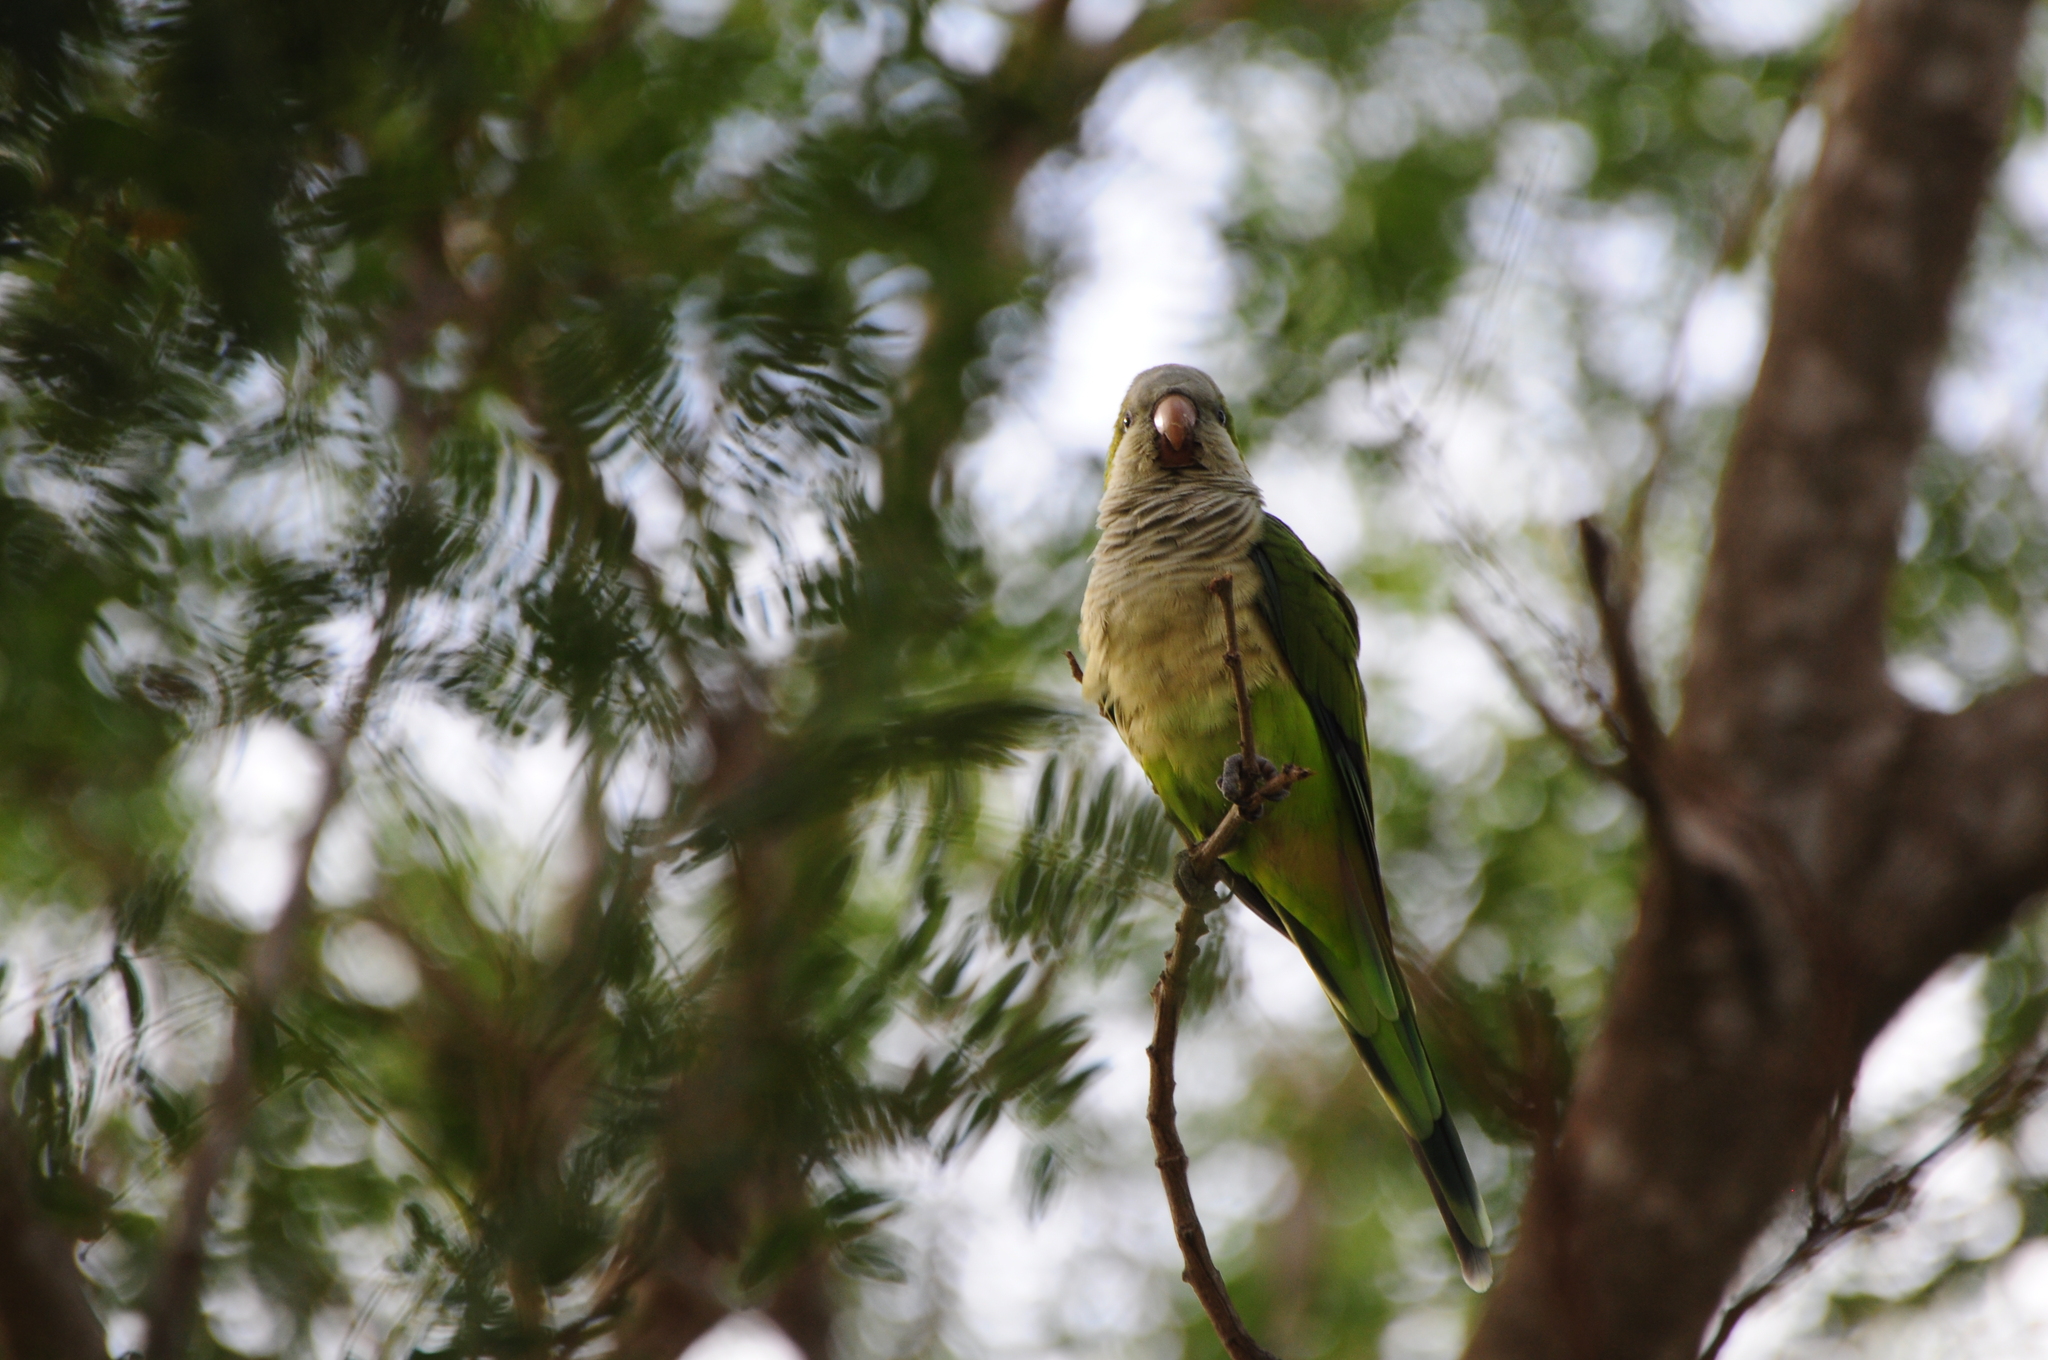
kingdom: Animalia
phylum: Chordata
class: Aves
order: Psittaciformes
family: Psittacidae
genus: Myiopsitta
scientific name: Myiopsitta monachus
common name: Monk parakeet
